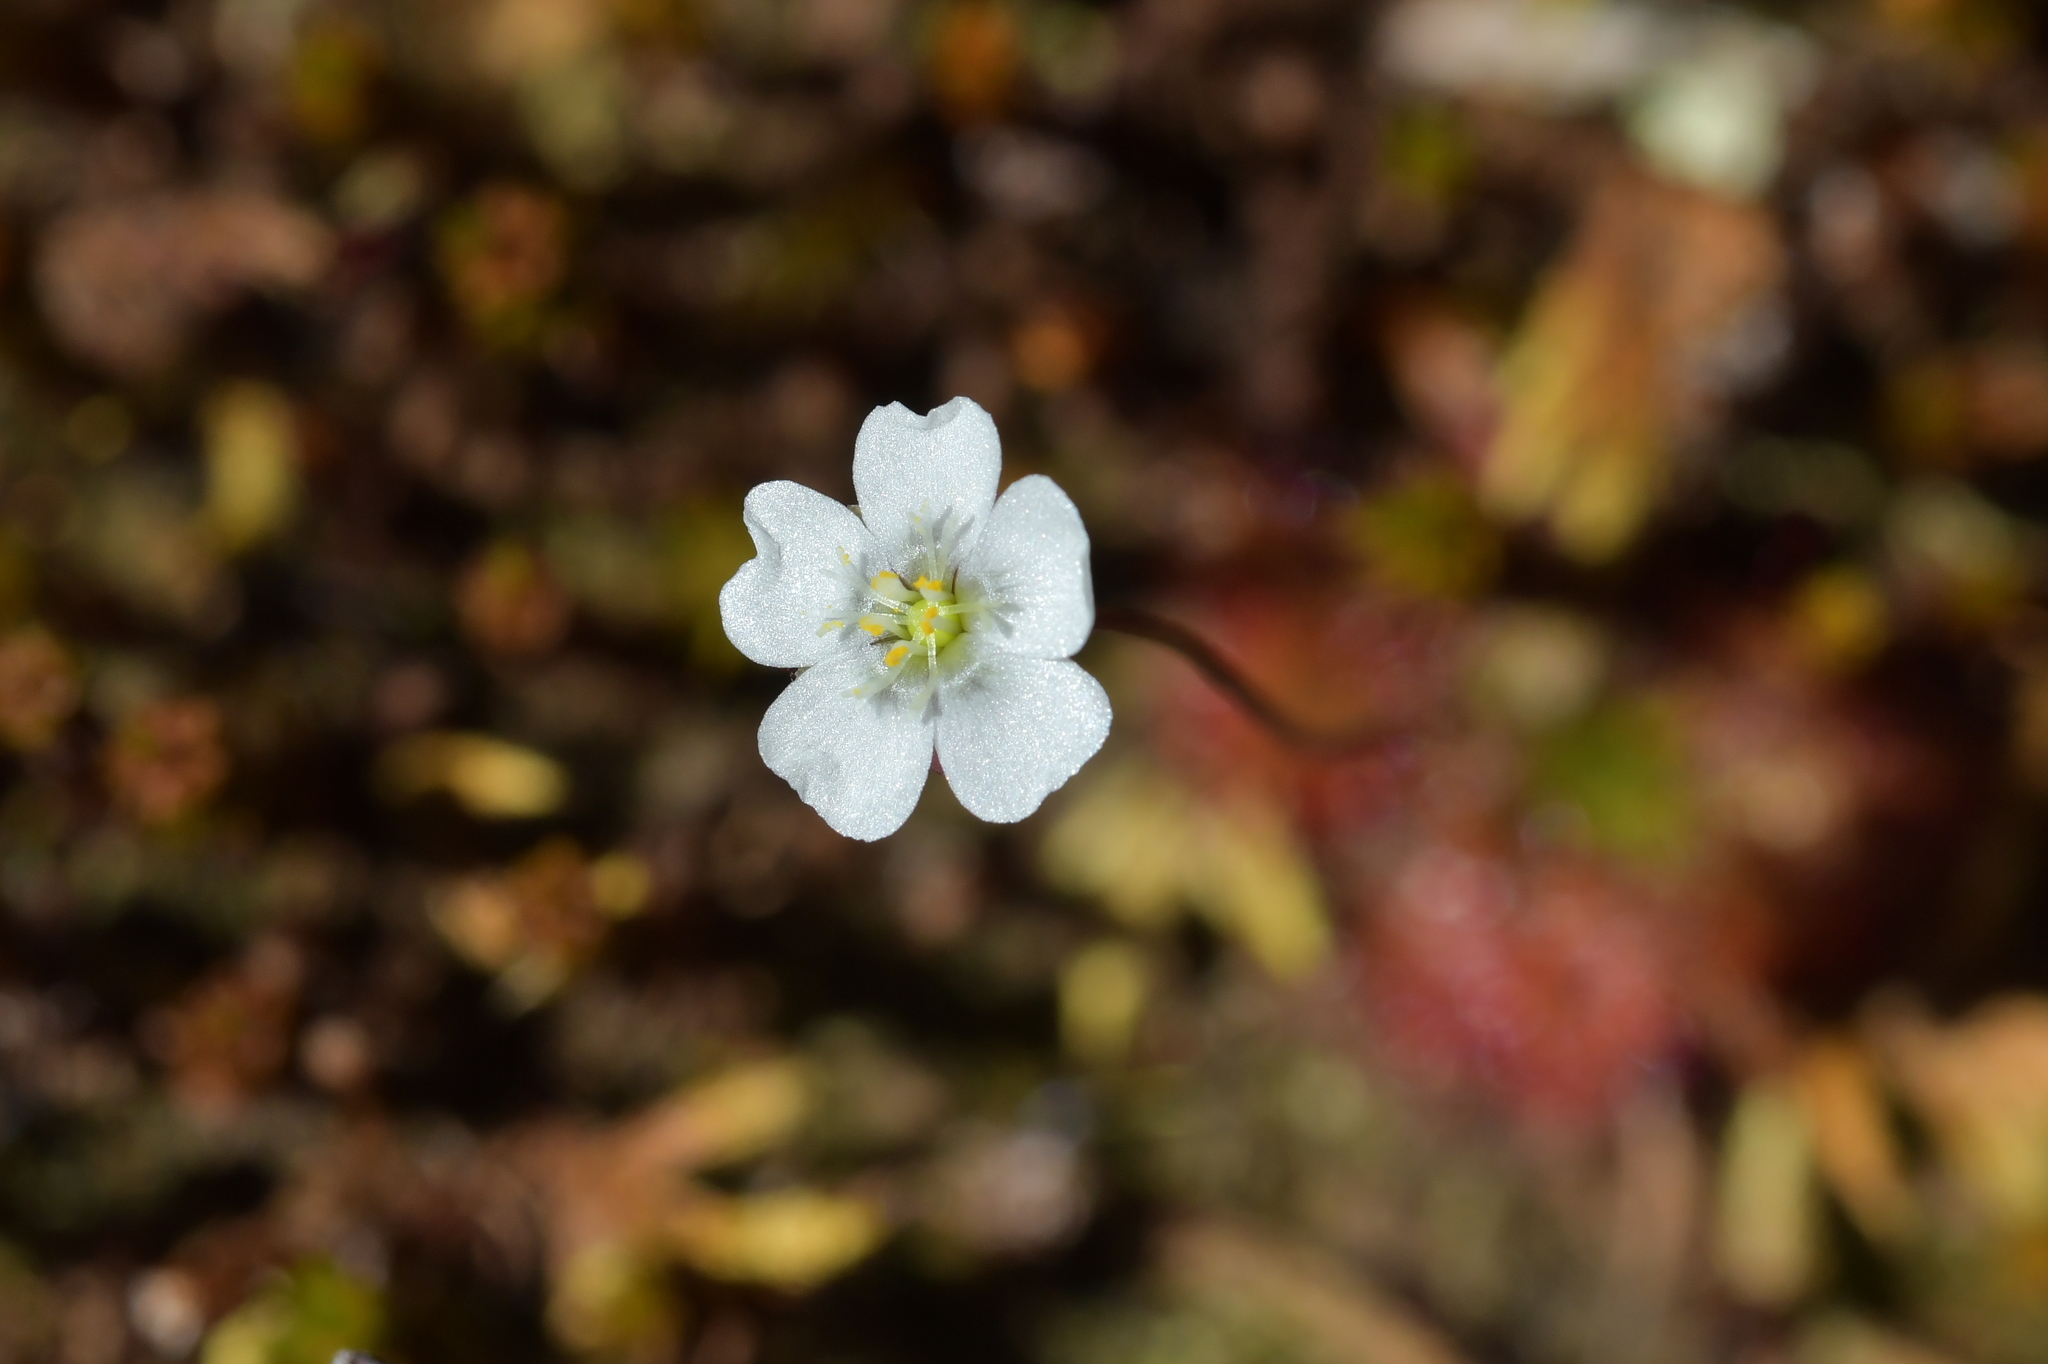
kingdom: Plantae
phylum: Tracheophyta
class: Magnoliopsida
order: Caryophyllales
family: Droseraceae
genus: Drosera
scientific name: Drosera stenopetala
